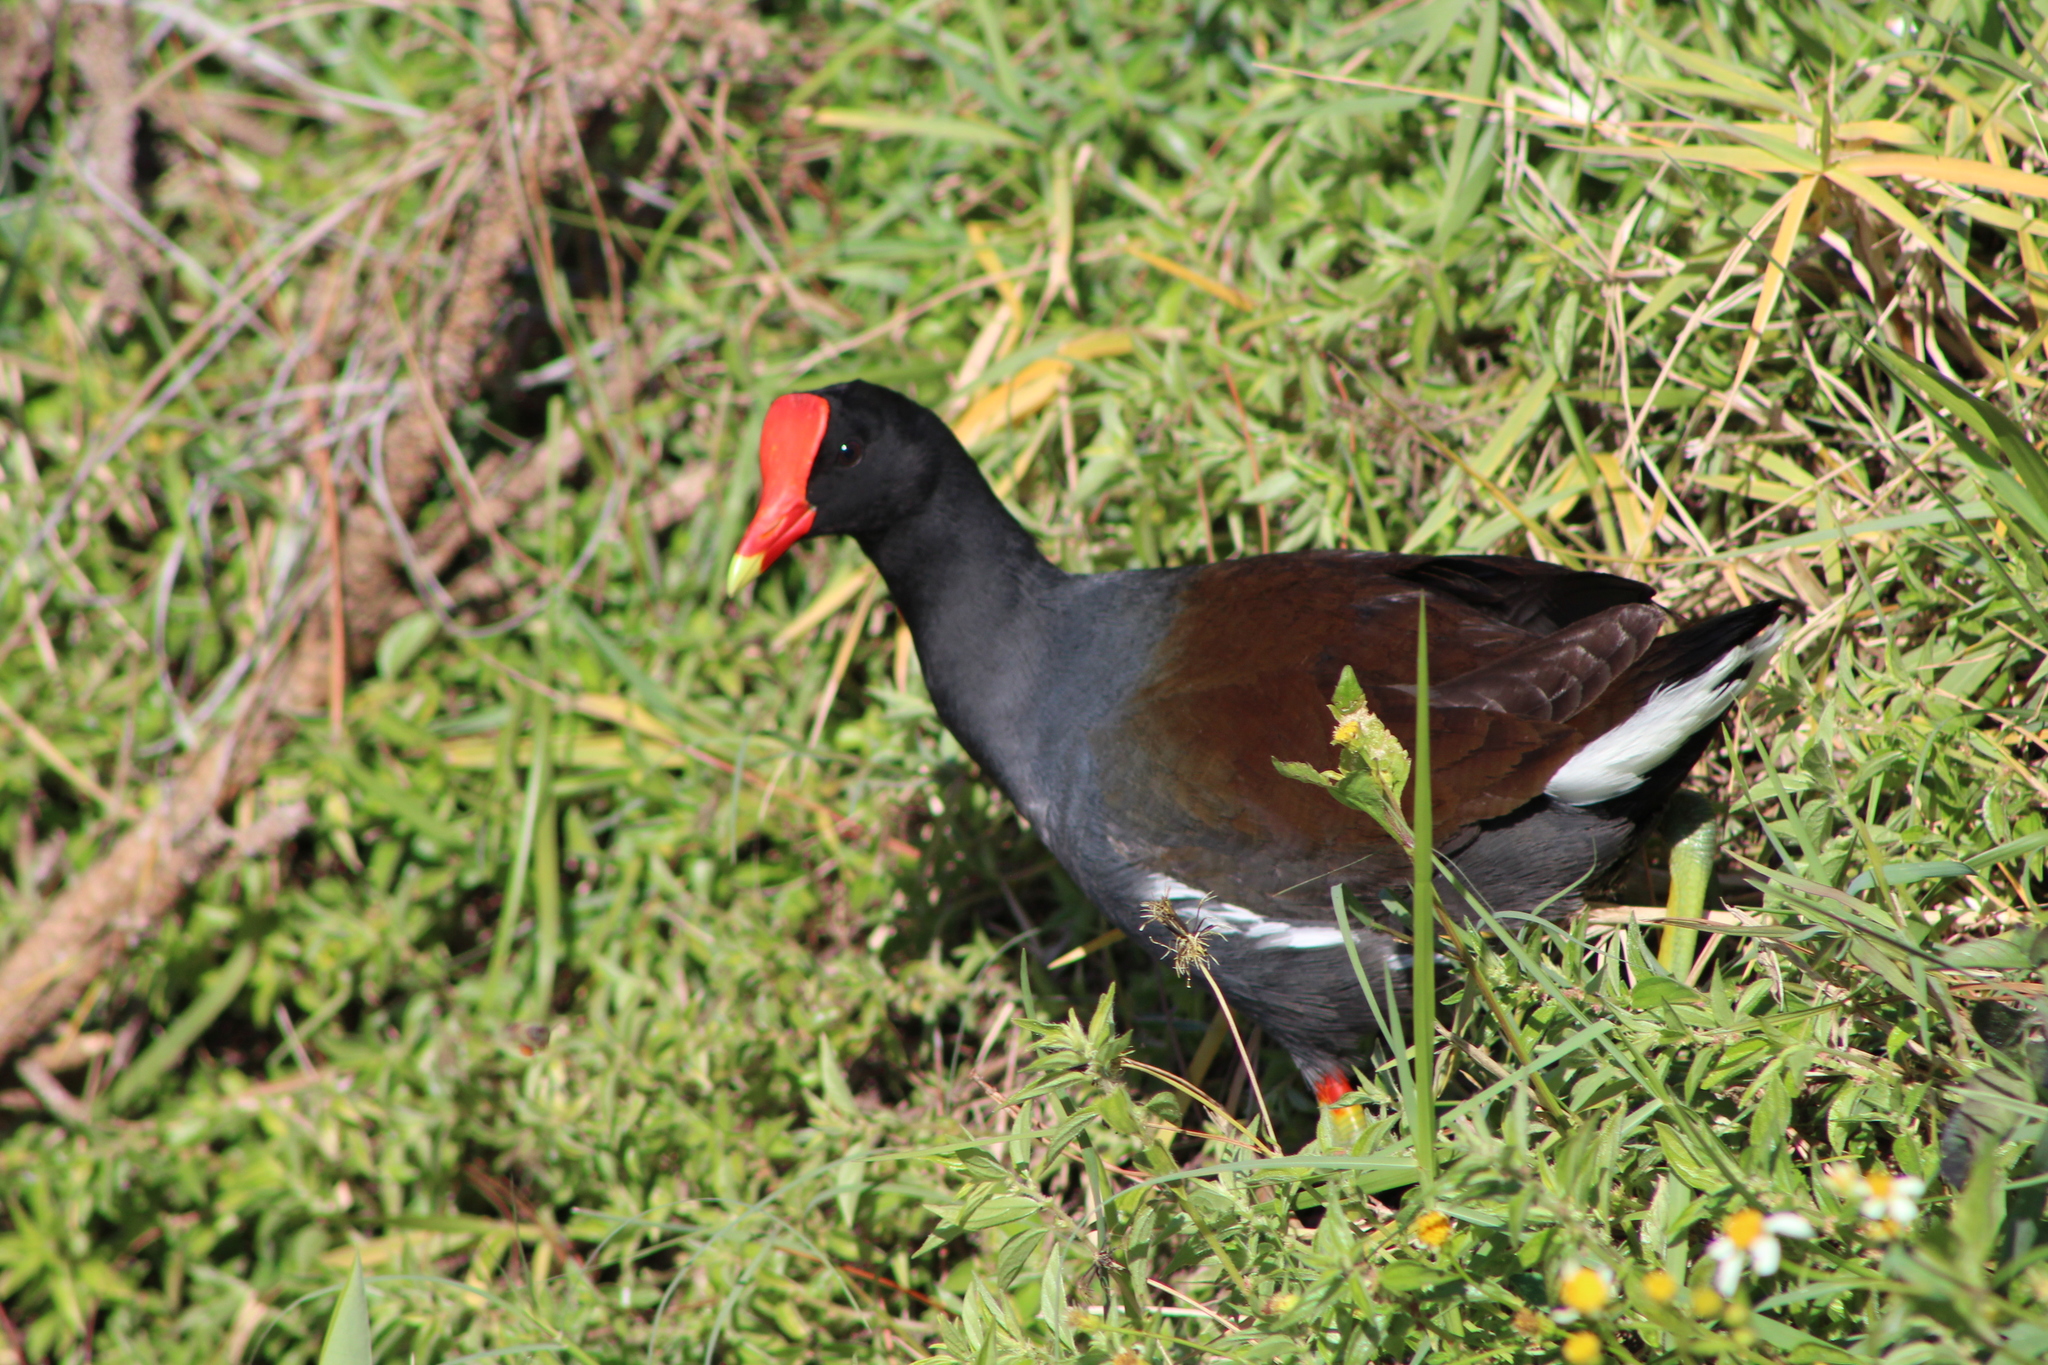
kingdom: Animalia
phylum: Chordata
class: Aves
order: Gruiformes
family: Rallidae
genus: Gallinula
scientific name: Gallinula chloropus
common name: Common moorhen
